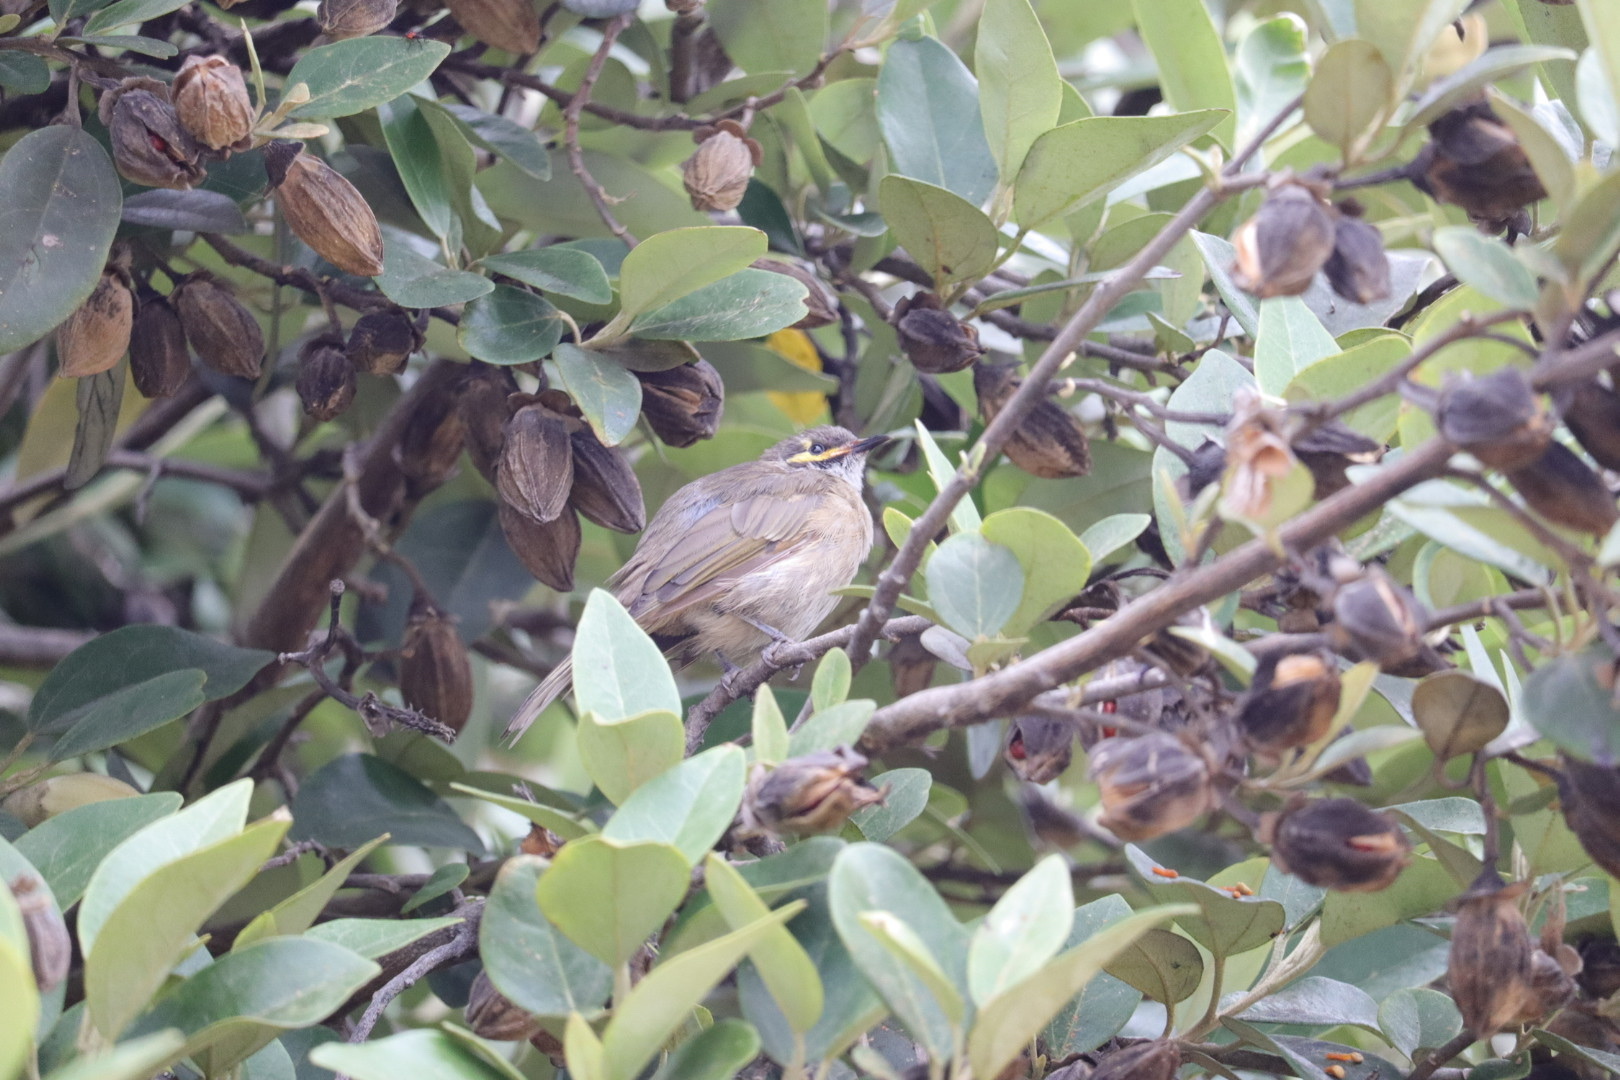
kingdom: Animalia
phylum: Chordata
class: Aves
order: Passeriformes
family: Meliphagidae
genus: Caligavis
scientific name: Caligavis chrysops
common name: Yellow-faced honeyeater
